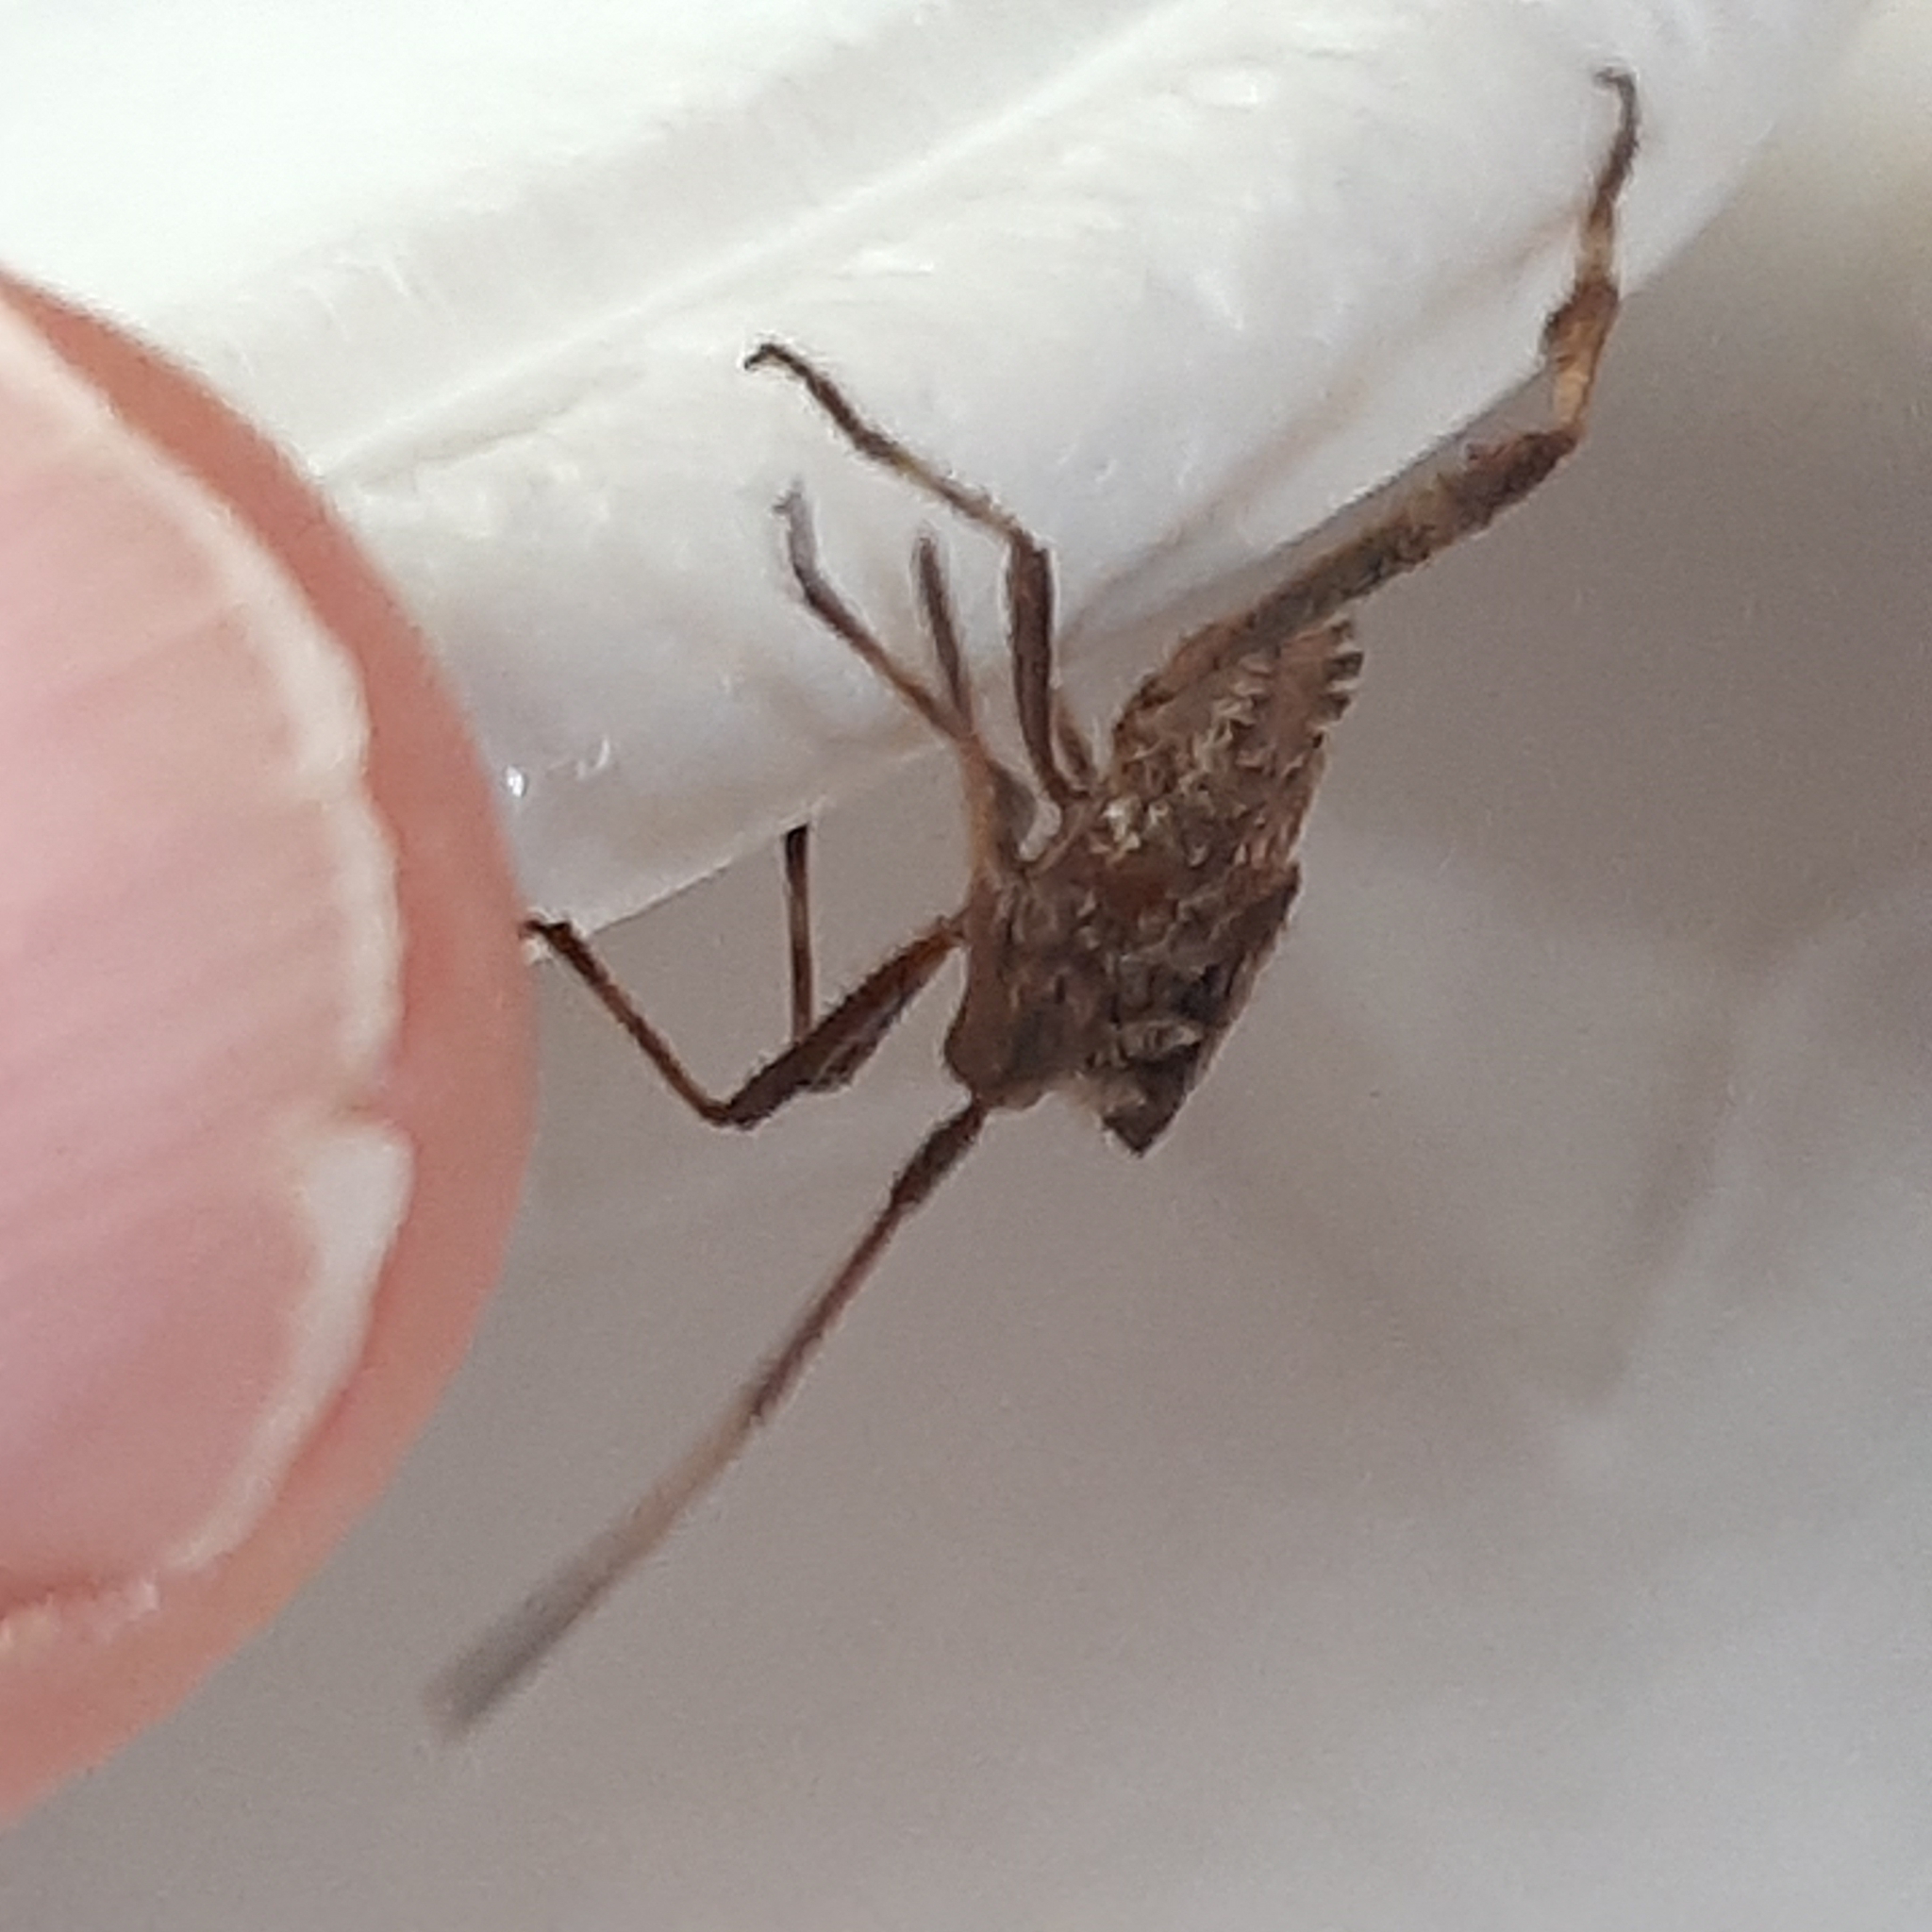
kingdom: Animalia
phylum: Arthropoda
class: Insecta
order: Hemiptera
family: Coreidae
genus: Leptoglossus
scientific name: Leptoglossus occidentalis
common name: Western conifer-seed bug
